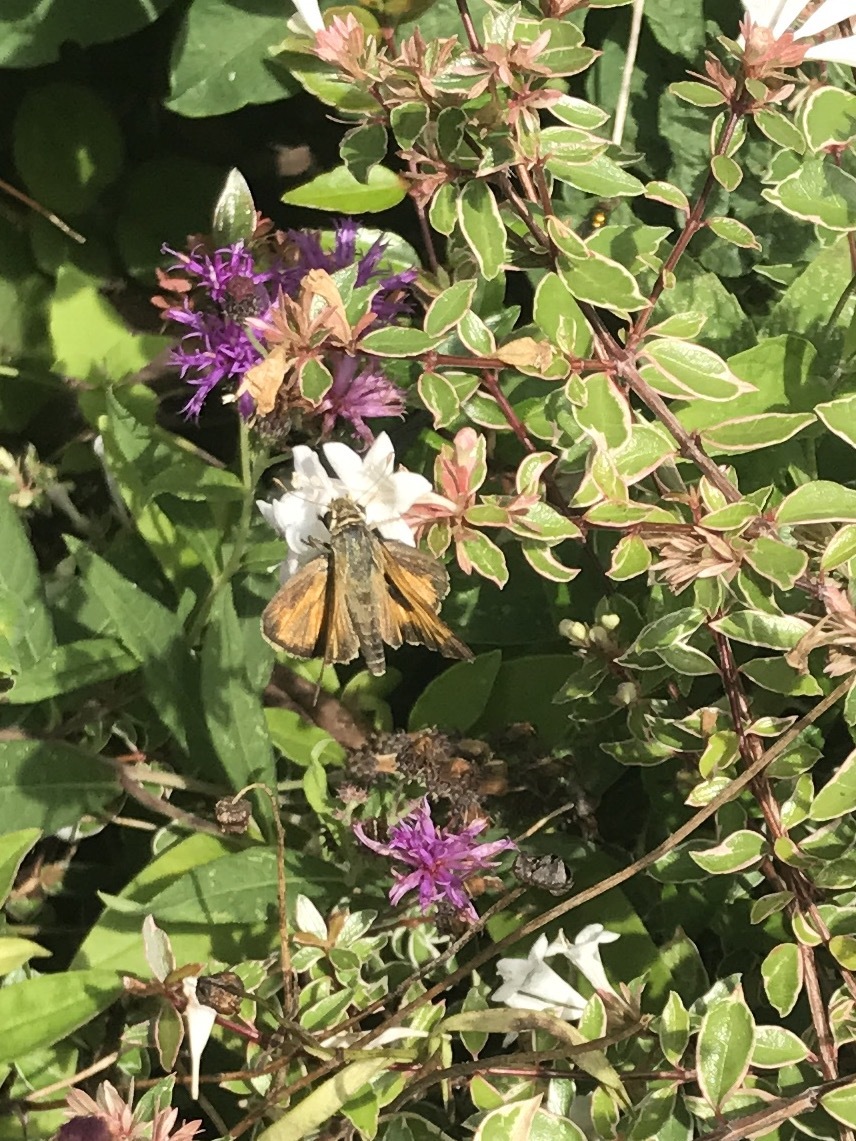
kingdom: Animalia
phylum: Arthropoda
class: Insecta
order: Lepidoptera
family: Hesperiidae
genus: Atalopedes
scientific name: Atalopedes
